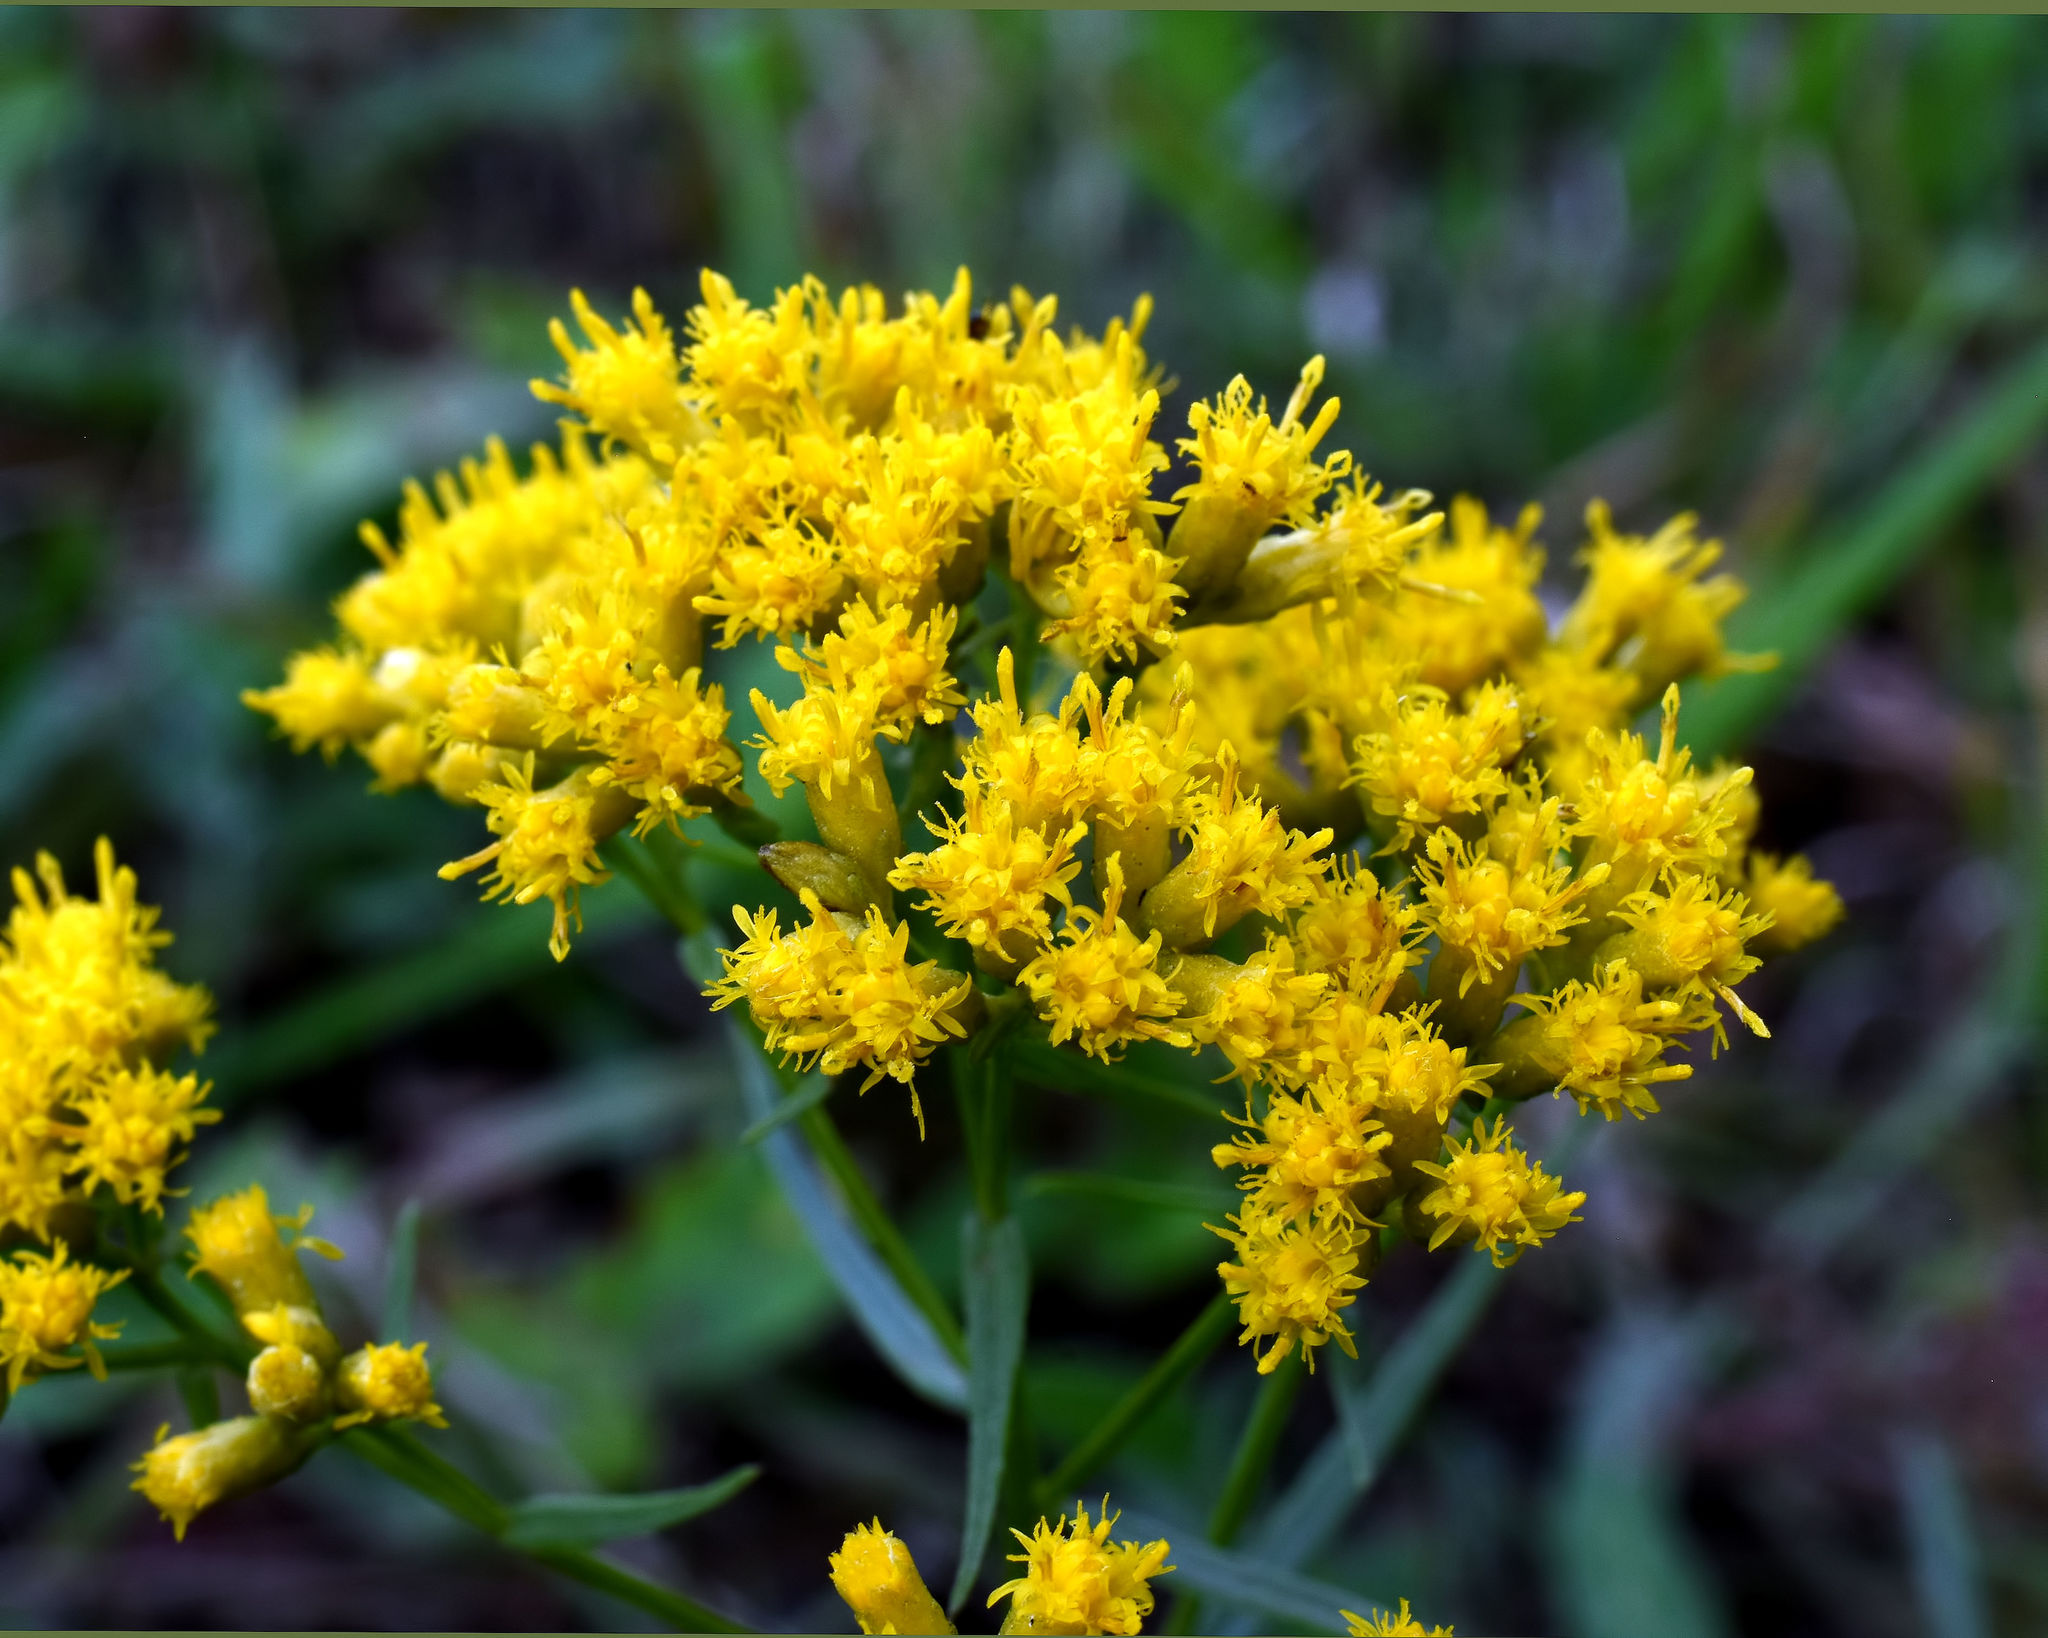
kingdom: Plantae
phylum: Tracheophyta
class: Magnoliopsida
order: Asterales
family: Asteraceae
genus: Euthamia
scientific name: Euthamia graminifolia
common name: Common goldentop
